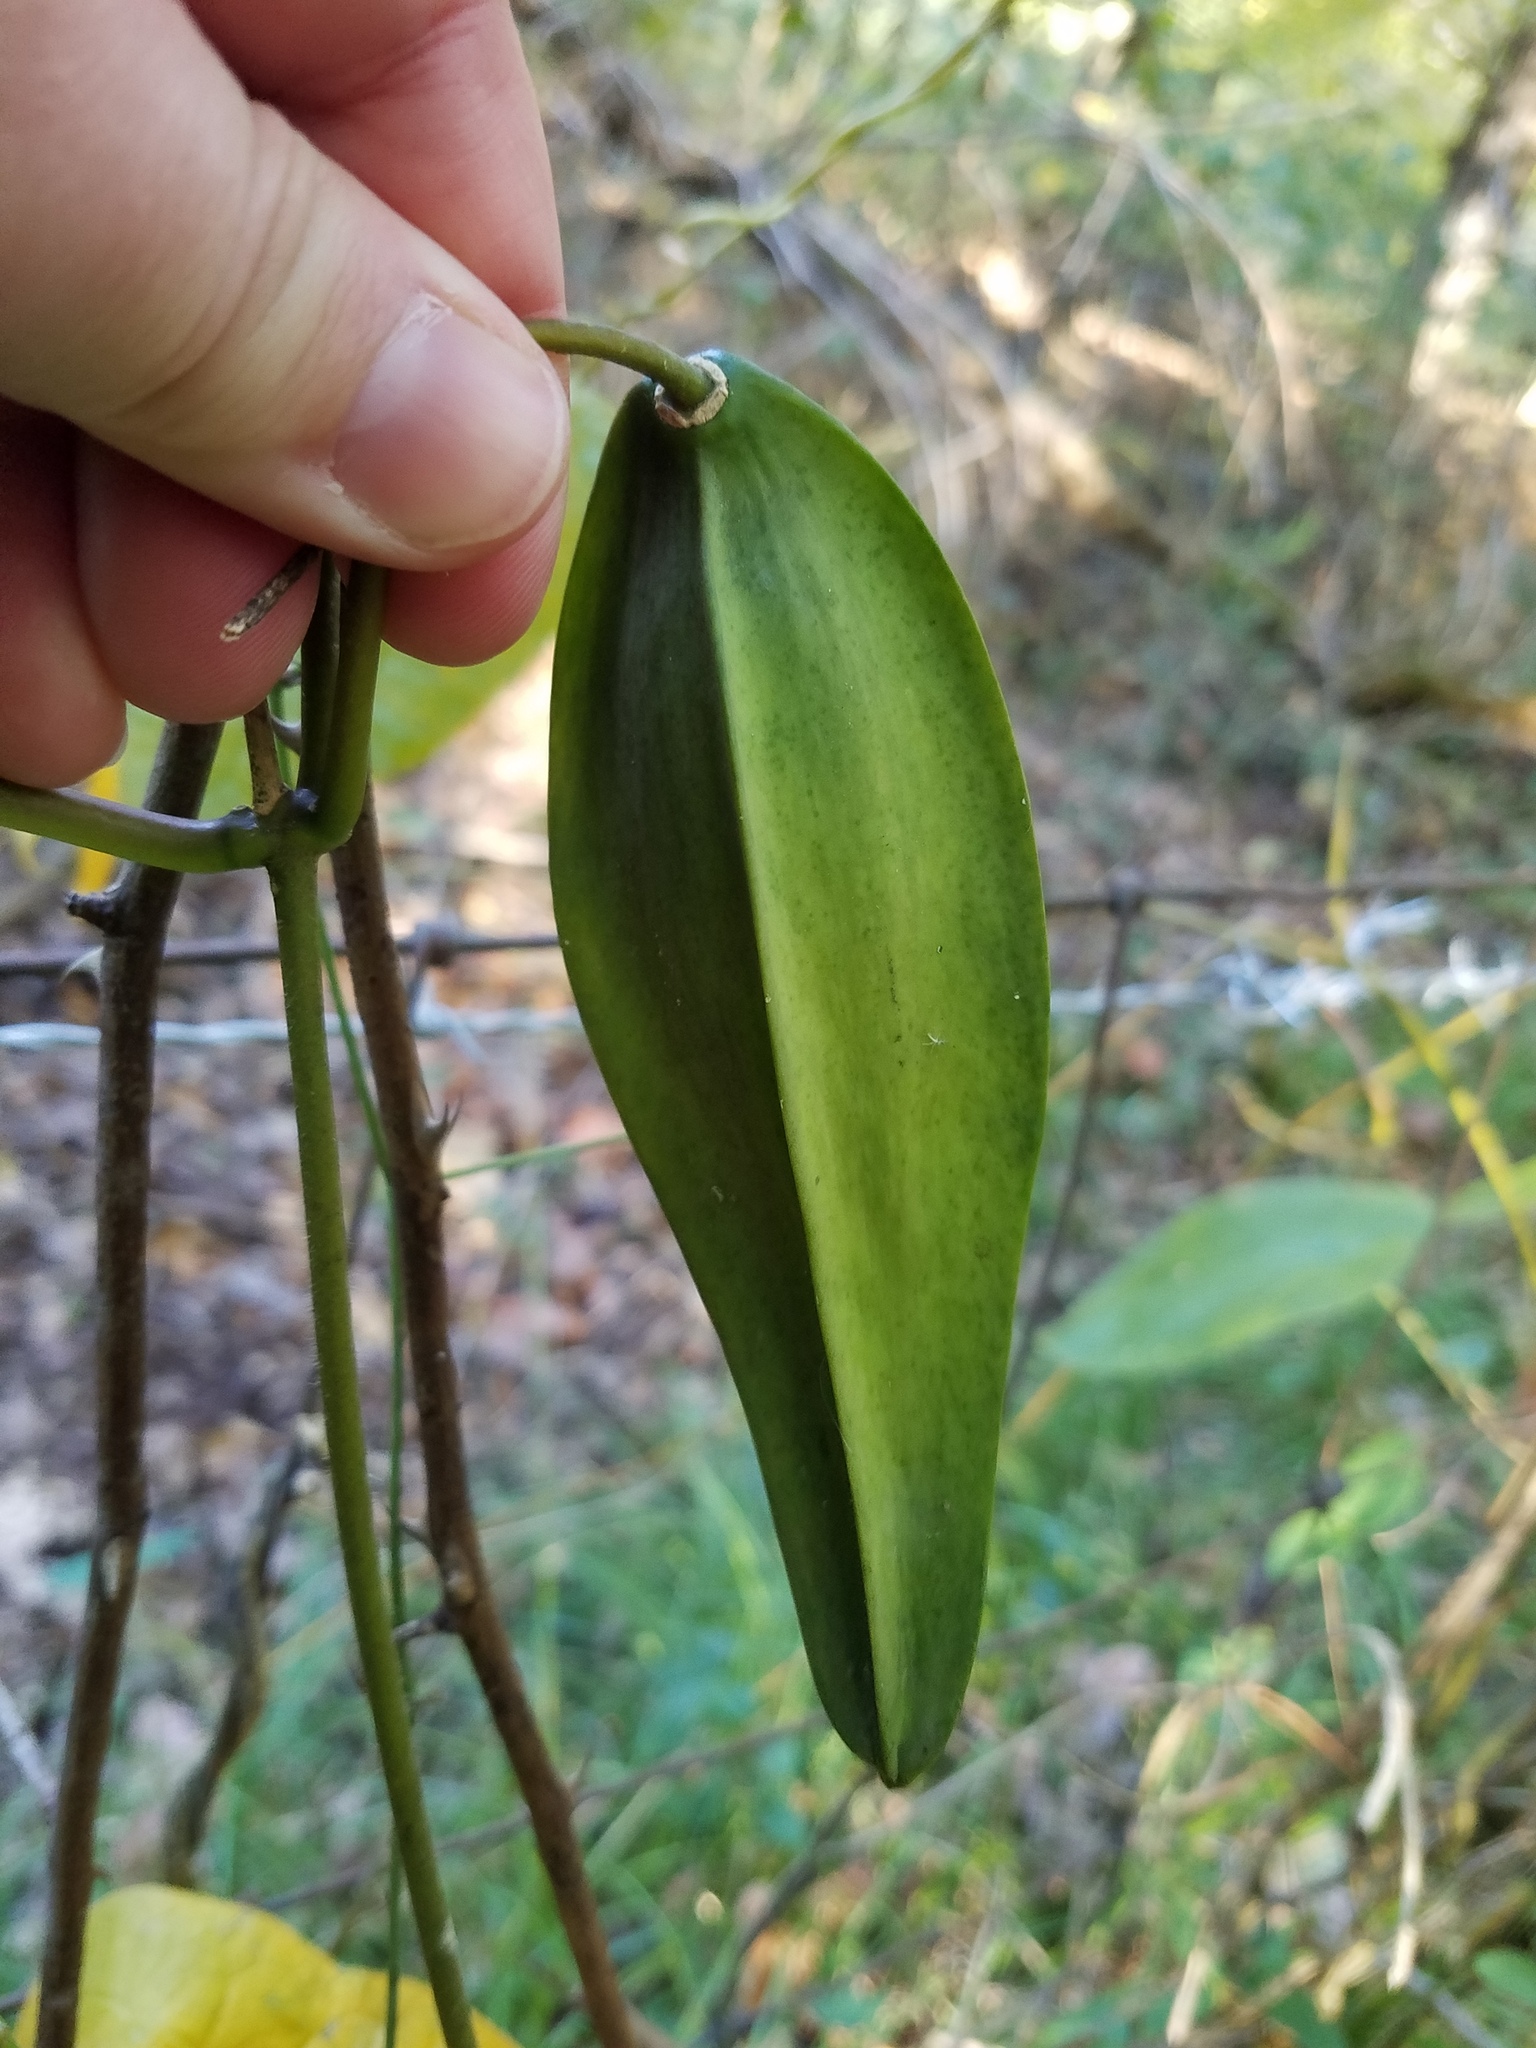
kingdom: Plantae
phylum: Tracheophyta
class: Magnoliopsida
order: Gentianales
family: Apocynaceae
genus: Gonolobus
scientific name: Gonolobus suberosus
